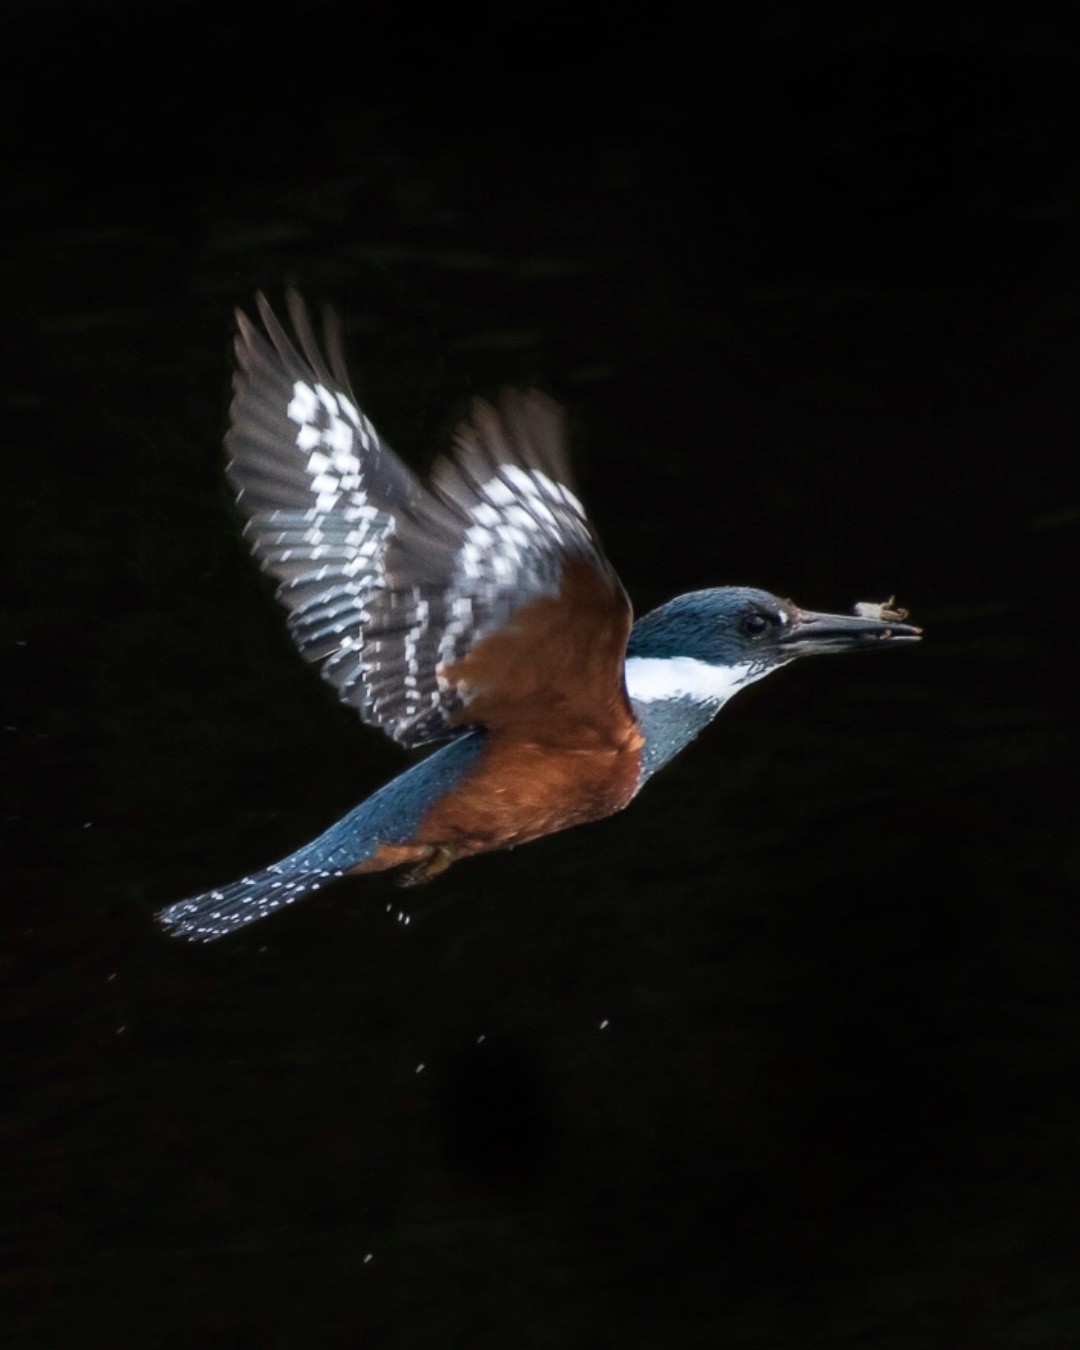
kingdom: Animalia
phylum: Chordata
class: Aves
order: Coraciiformes
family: Alcedinidae
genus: Megaceryle
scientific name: Megaceryle torquata
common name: Ringed kingfisher
